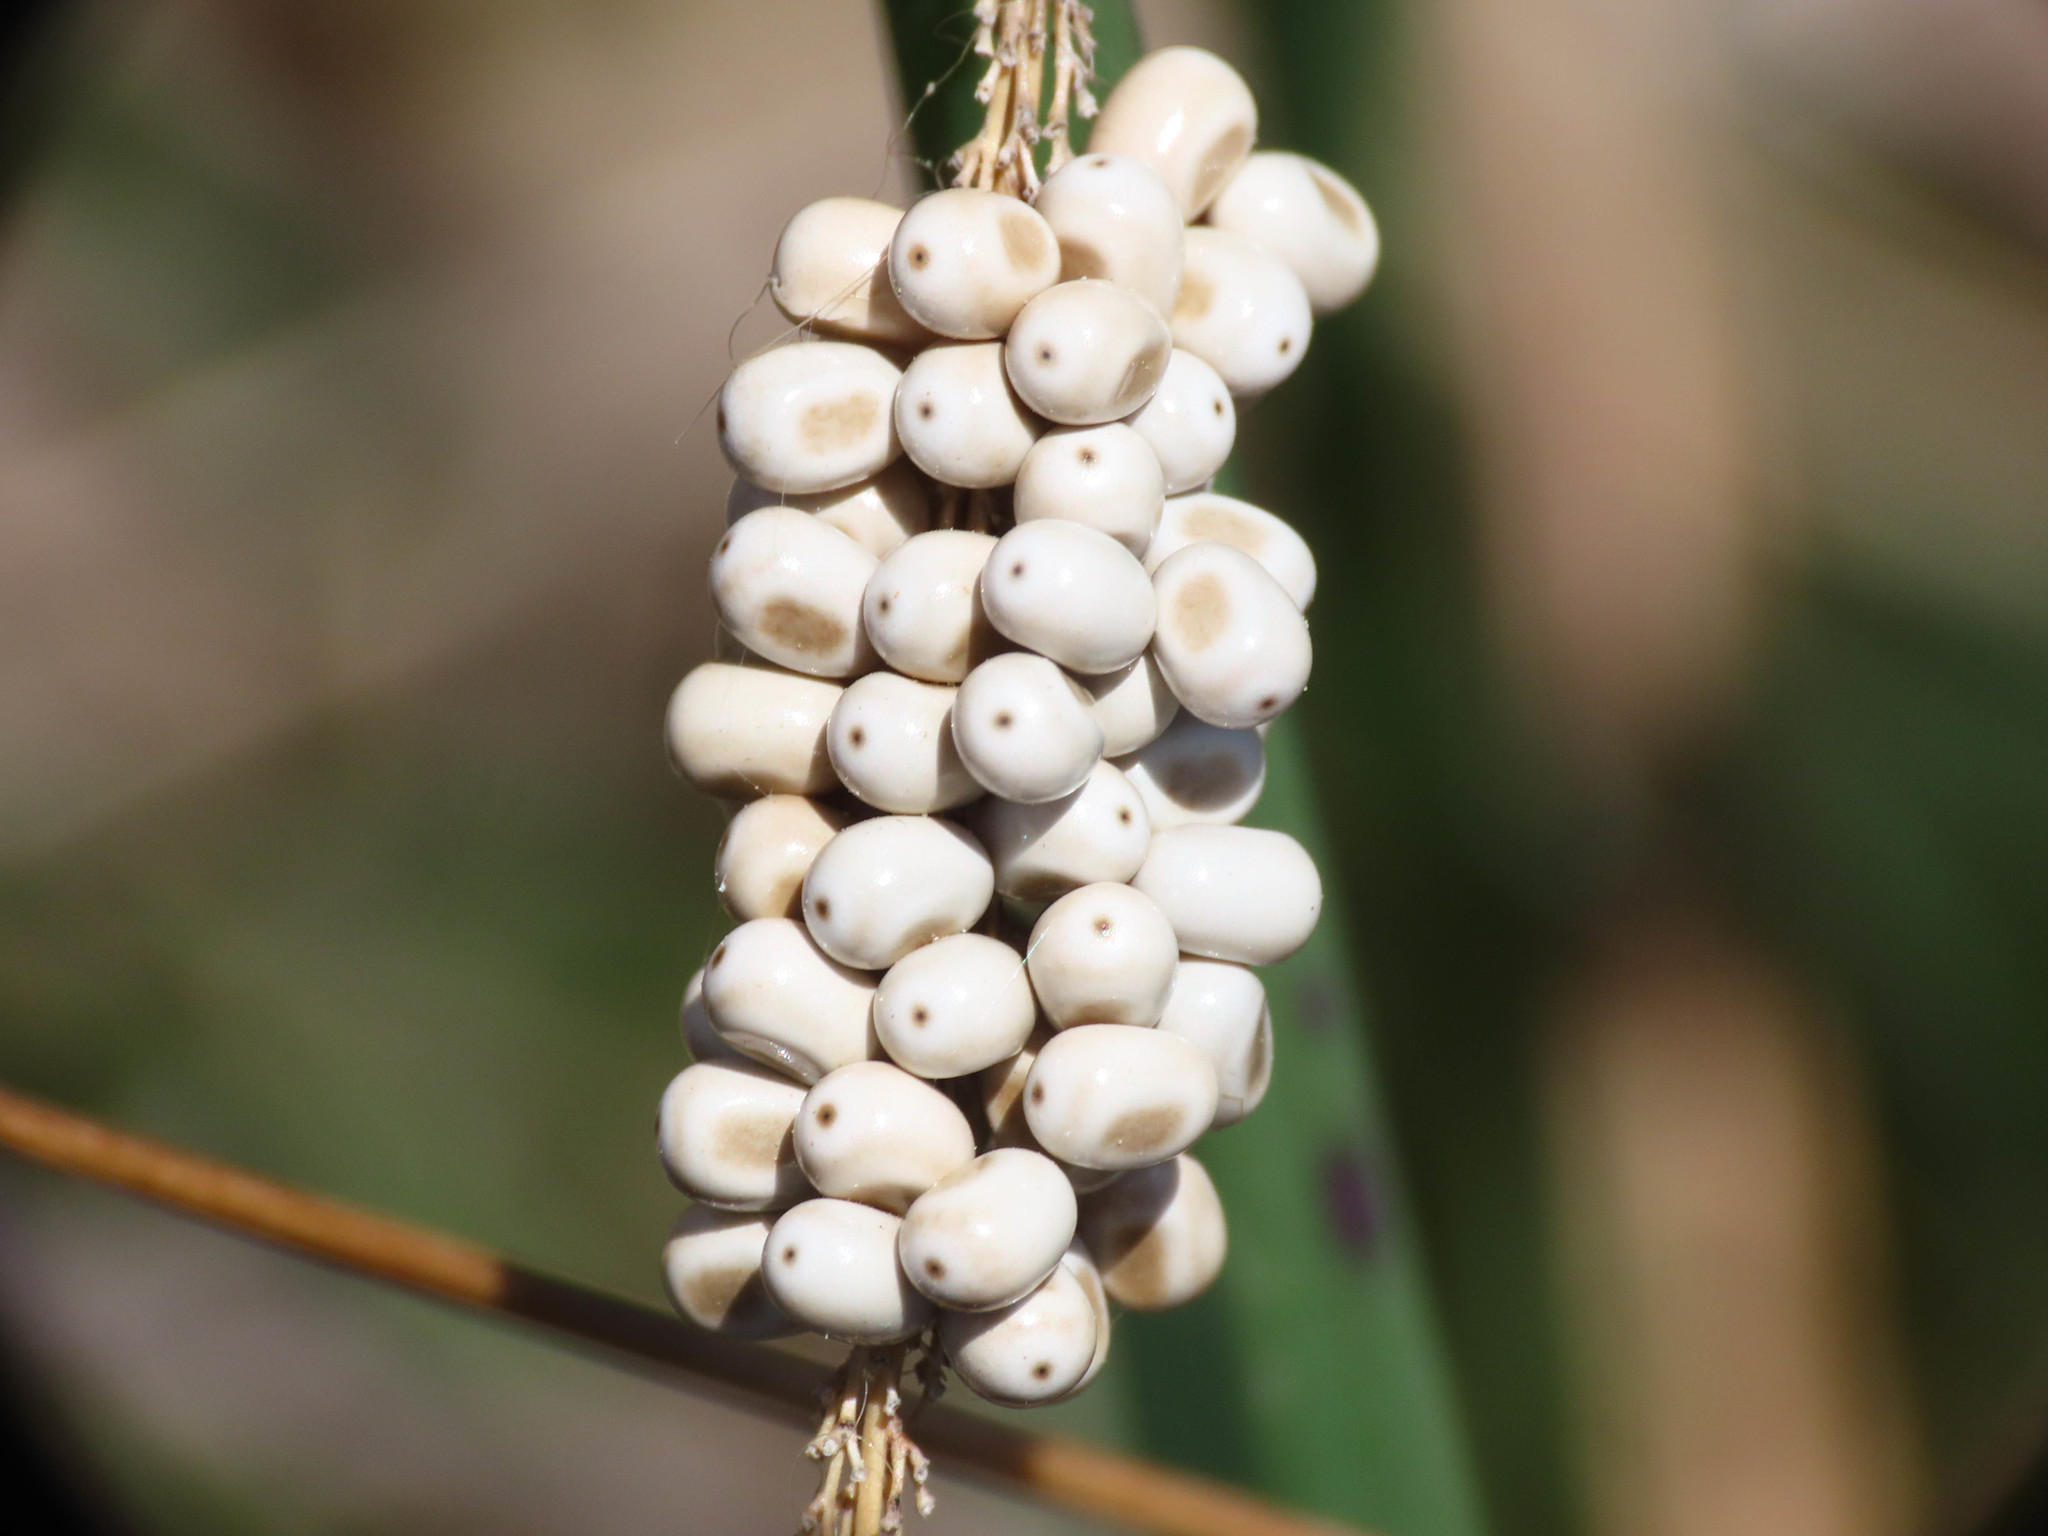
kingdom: Animalia
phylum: Arthropoda
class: Insecta
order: Lepidoptera
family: Lasiocampidae
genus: Macrothylacia
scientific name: Macrothylacia rubi
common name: Fox moth
